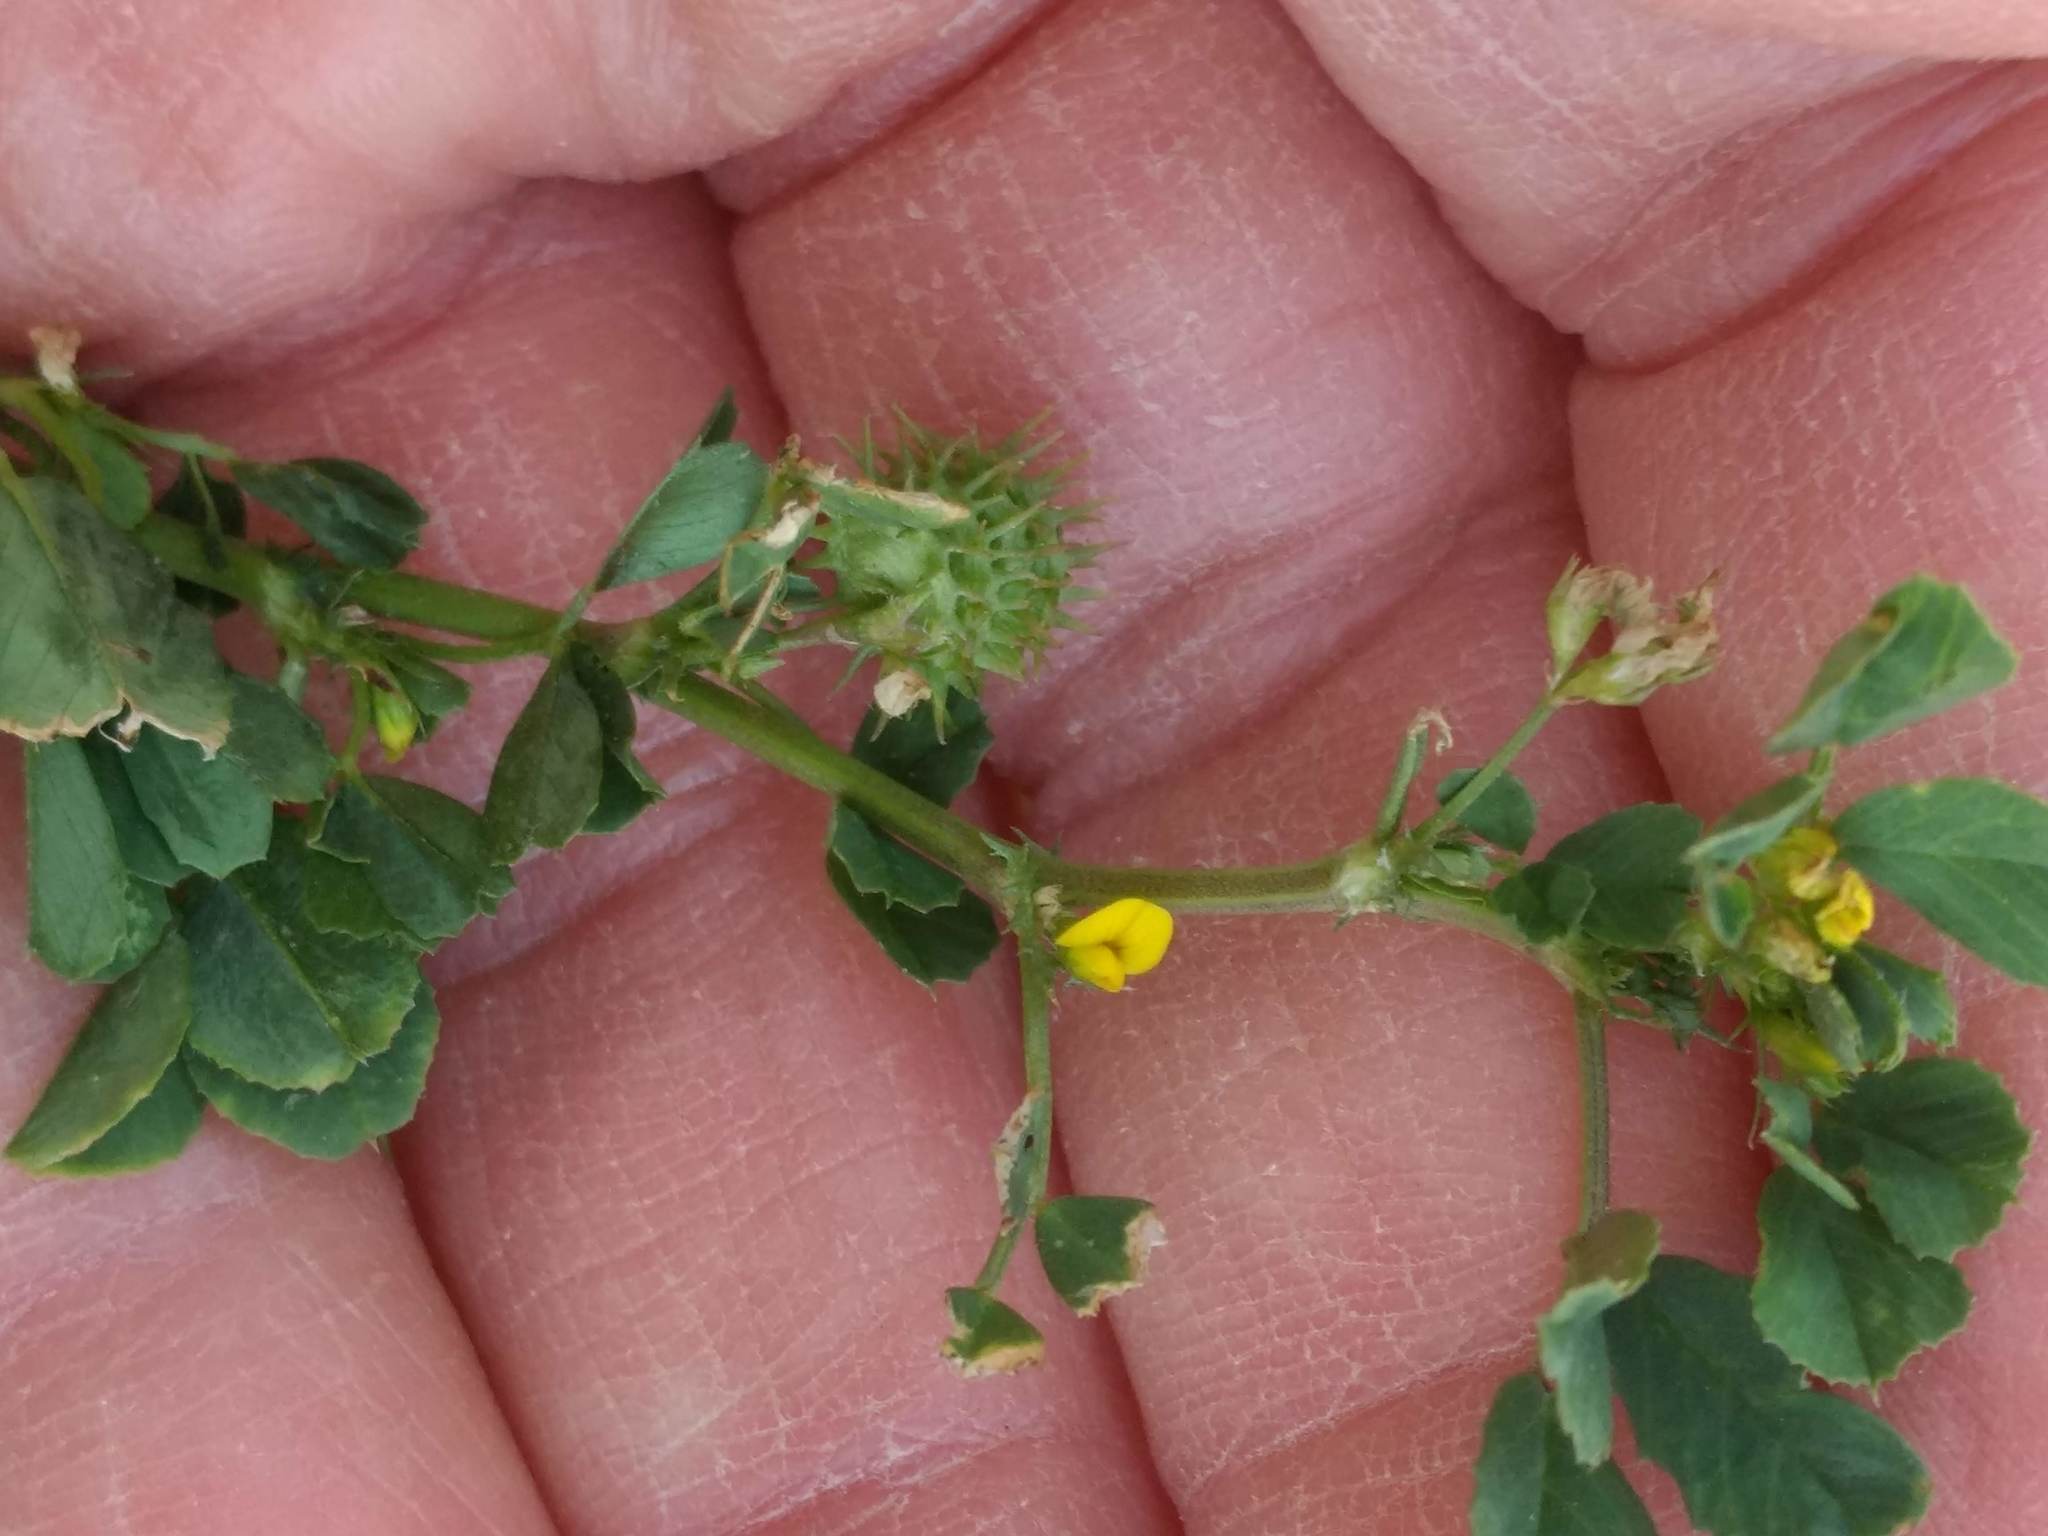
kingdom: Plantae
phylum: Tracheophyta
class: Magnoliopsida
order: Fabales
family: Fabaceae
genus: Medicago
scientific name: Medicago polymorpha
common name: Burclover
